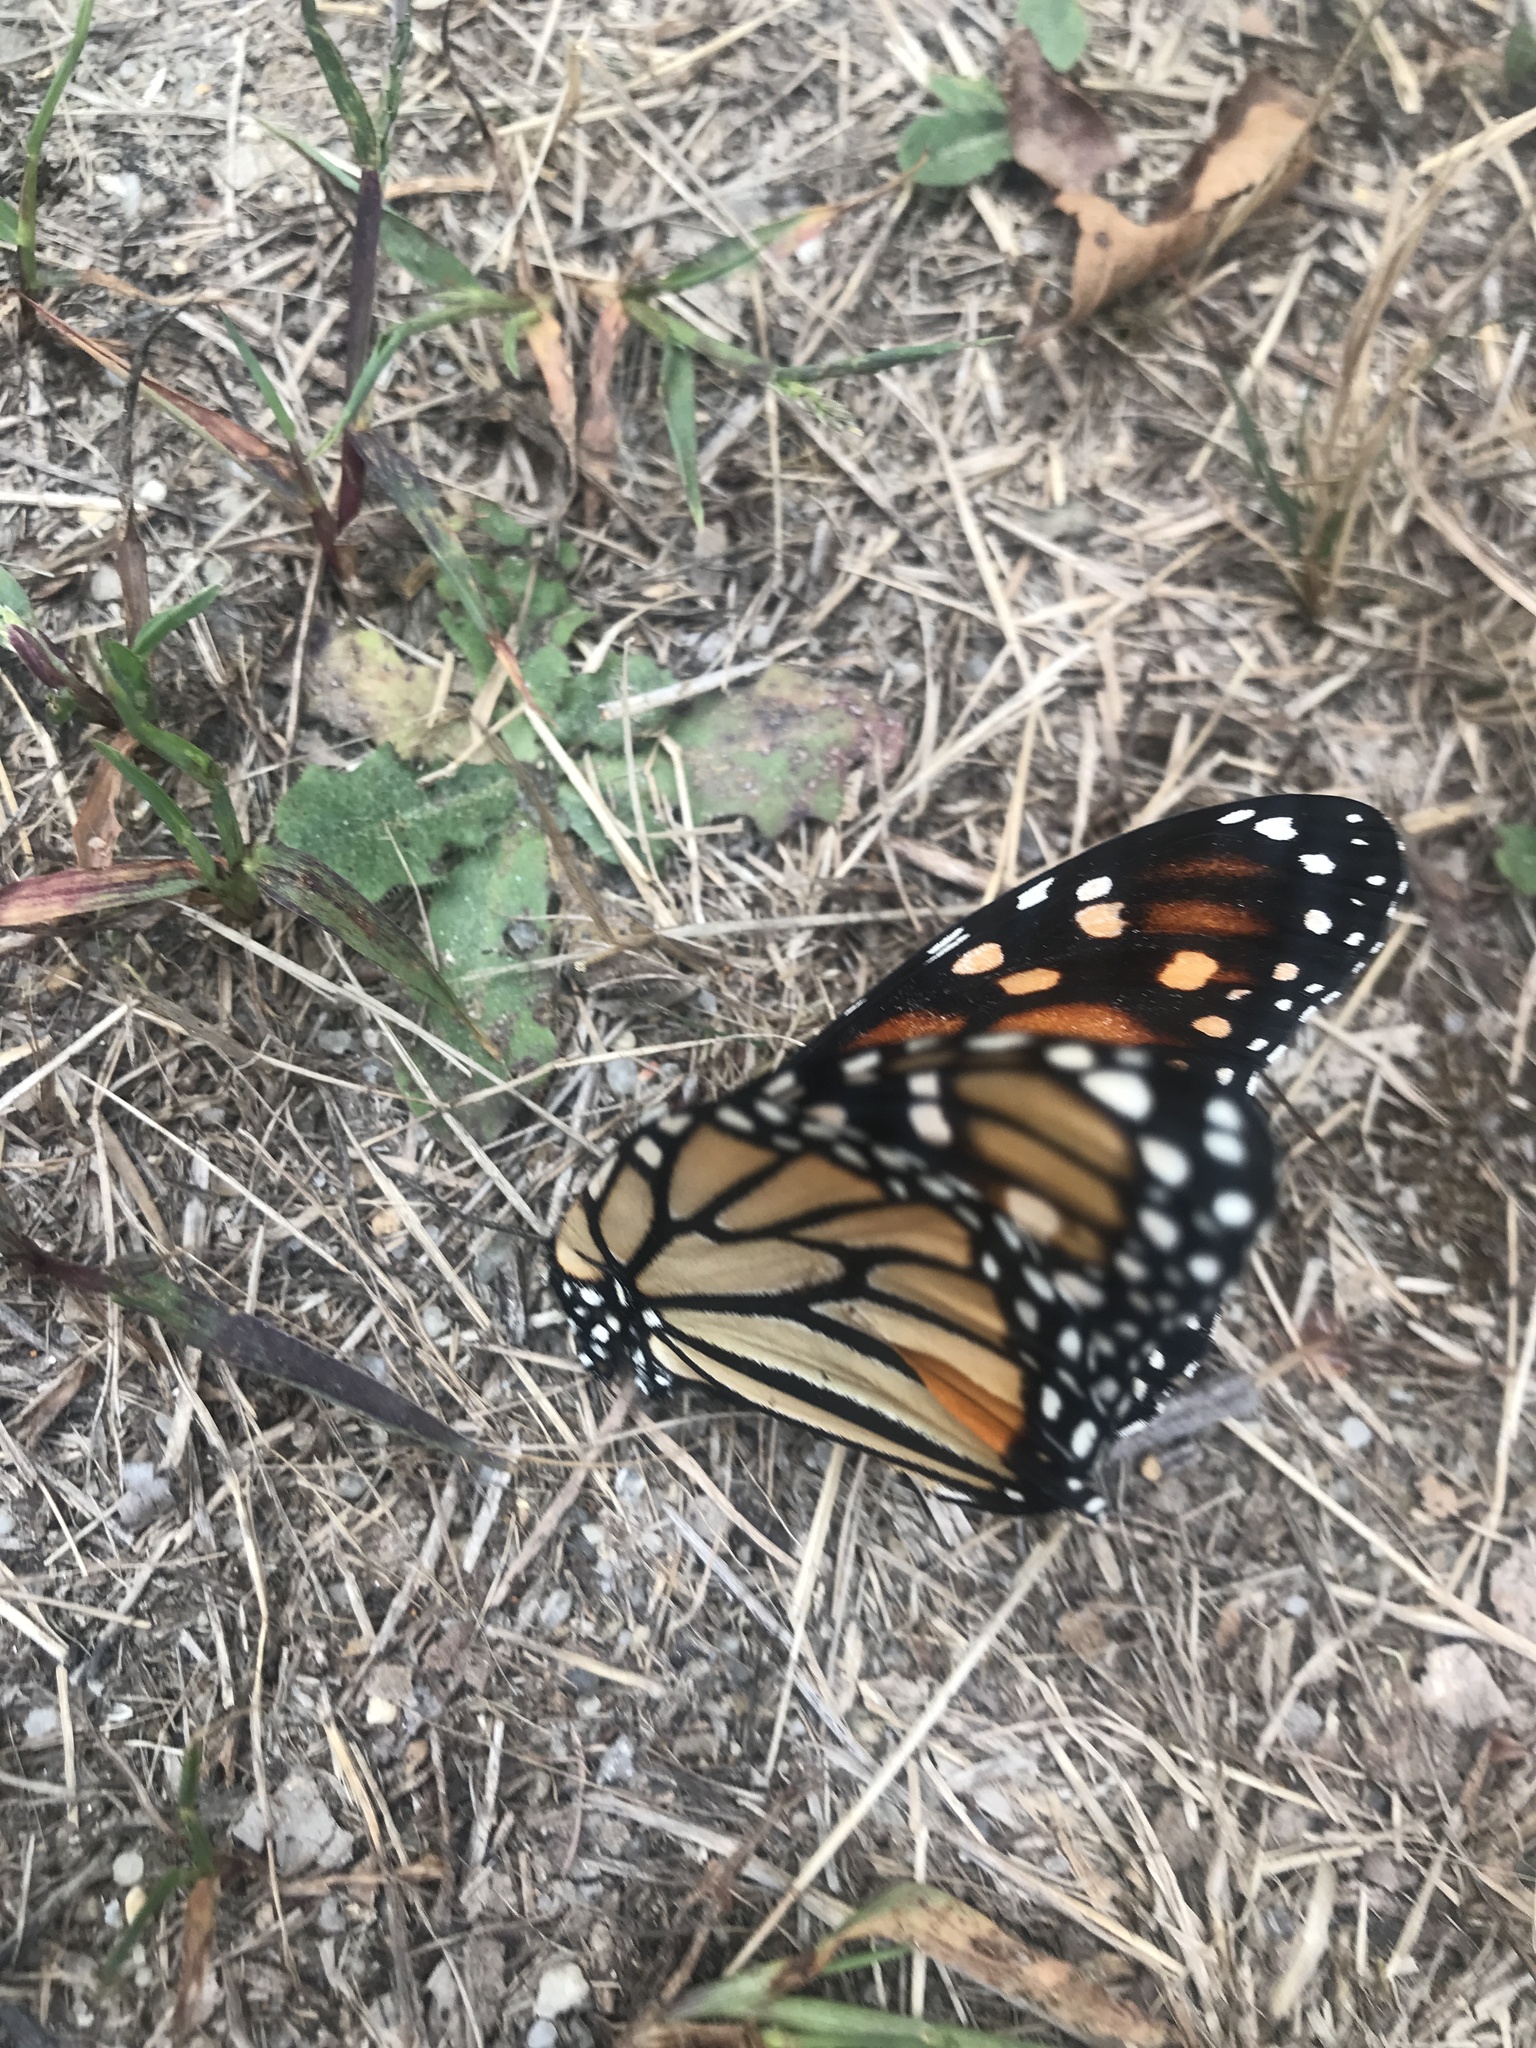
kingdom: Animalia
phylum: Arthropoda
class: Insecta
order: Lepidoptera
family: Nymphalidae
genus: Danaus
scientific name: Danaus plexippus
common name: Monarch
